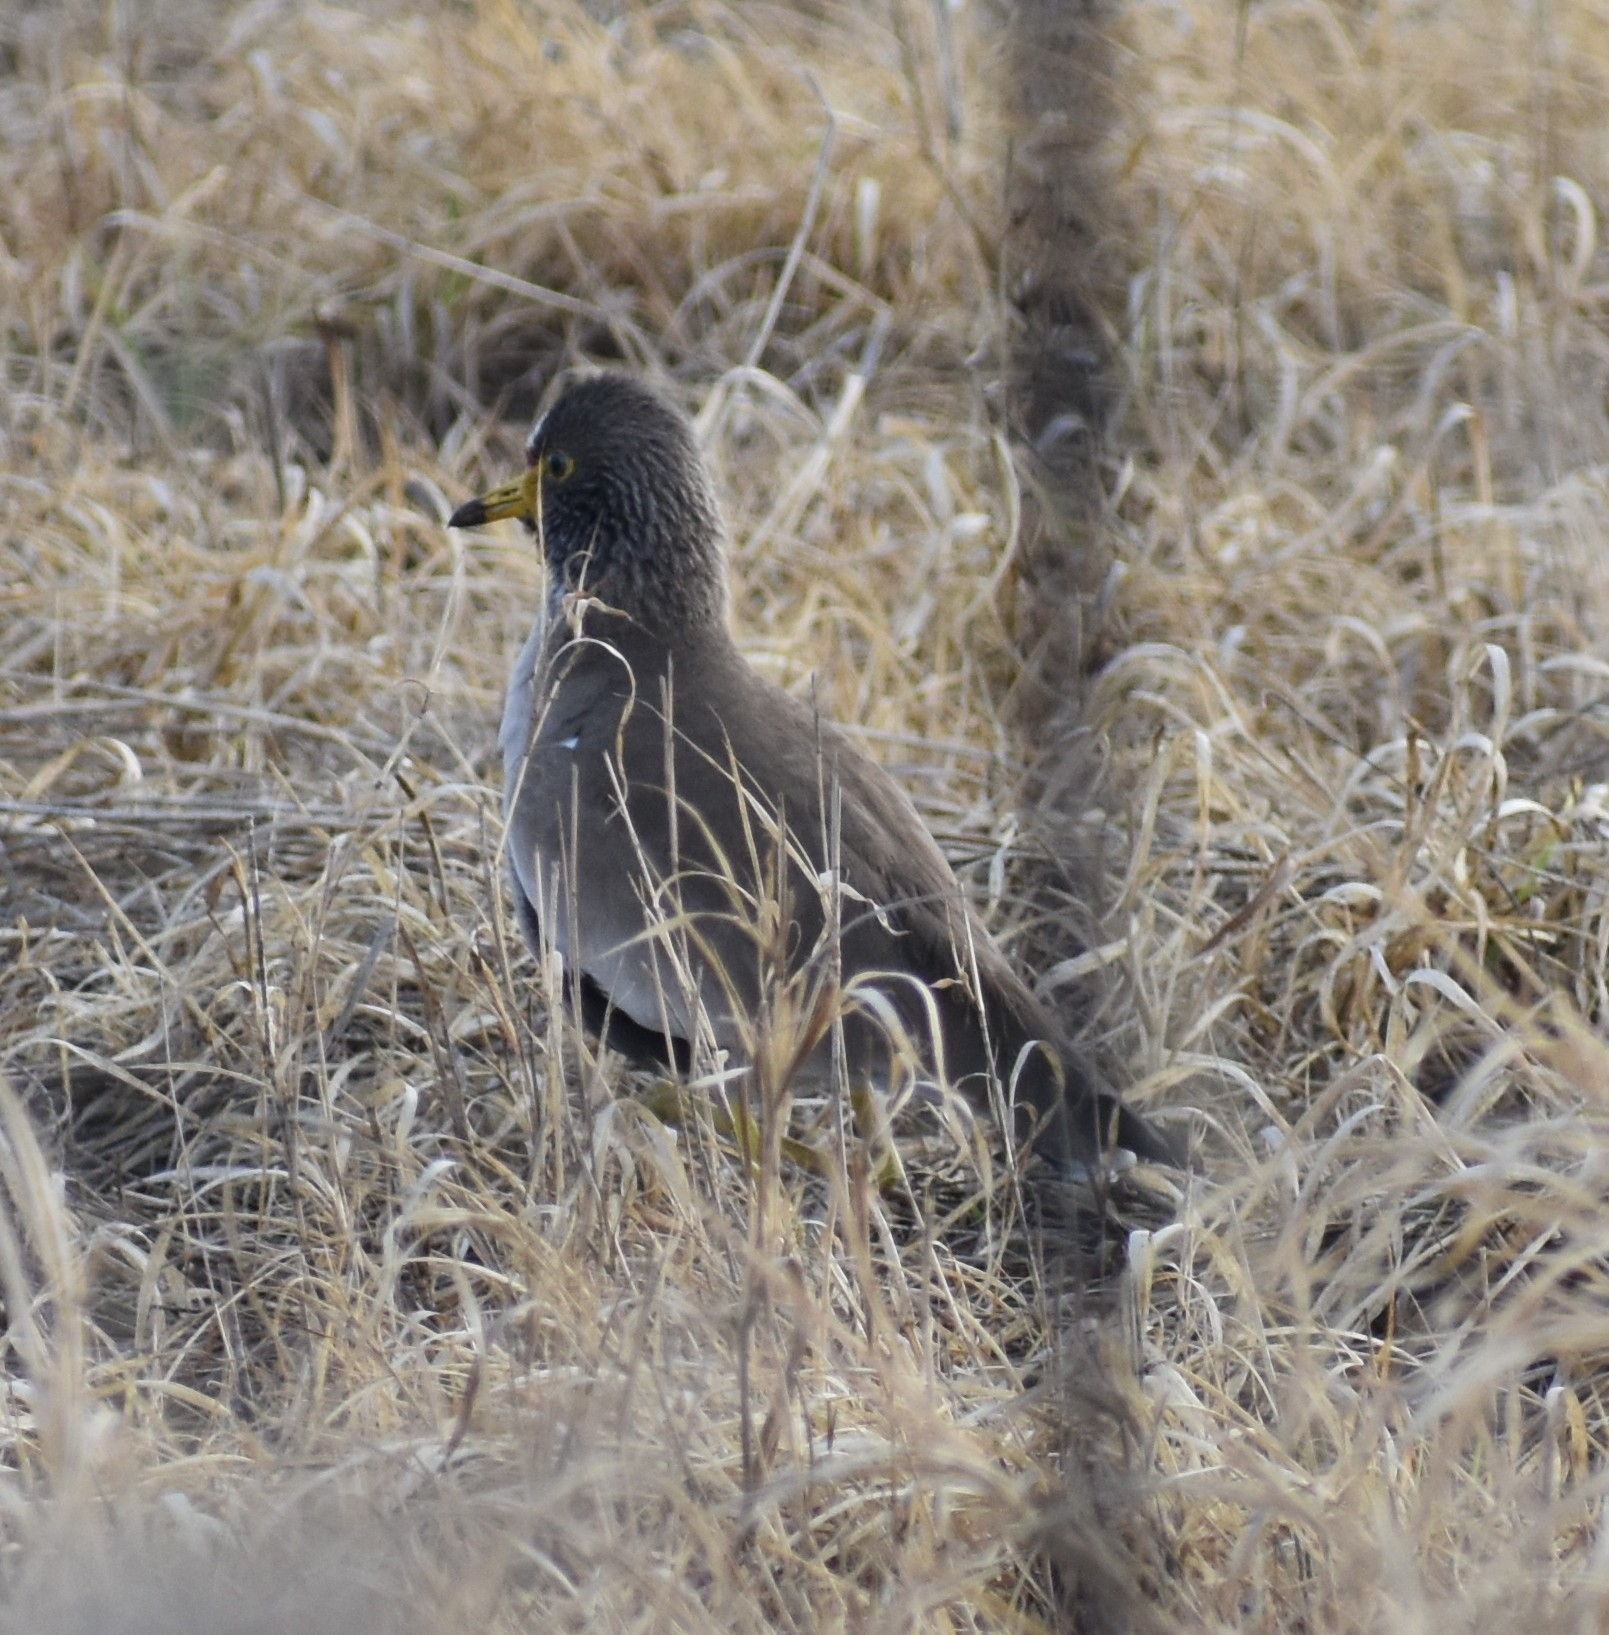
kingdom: Animalia
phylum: Chordata
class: Aves
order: Charadriiformes
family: Charadriidae
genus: Vanellus
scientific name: Vanellus senegallus
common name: African wattled lapwing
